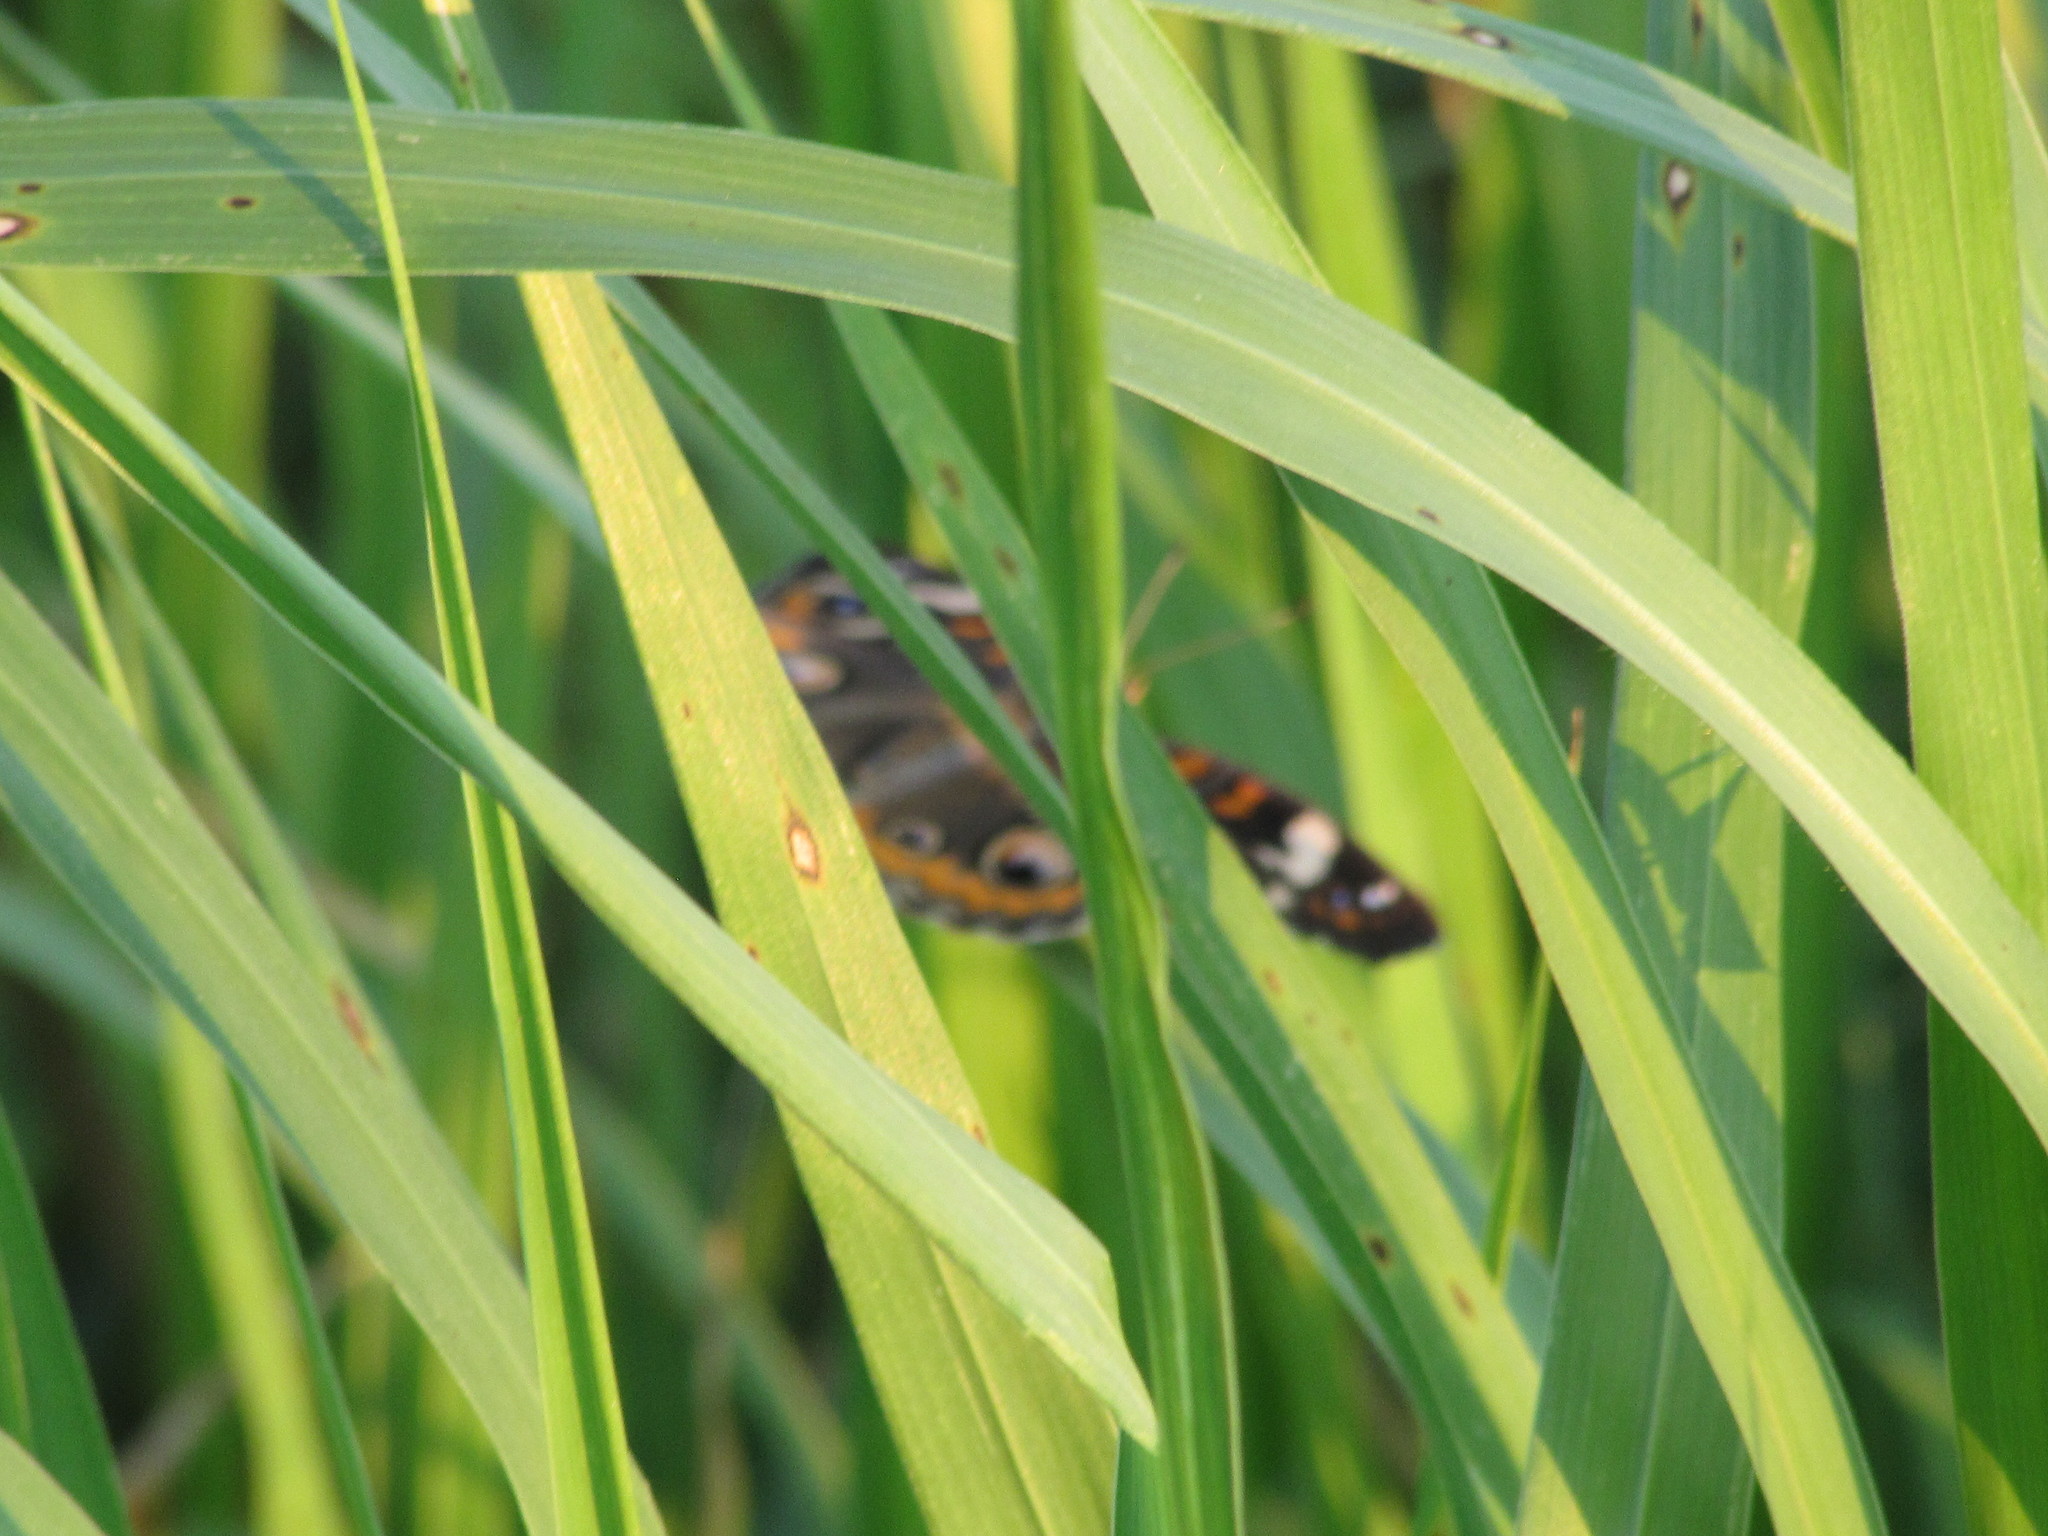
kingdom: Animalia
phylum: Arthropoda
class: Insecta
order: Lepidoptera
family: Nymphalidae
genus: Junonia
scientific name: Junonia coenia
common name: Common buckeye
